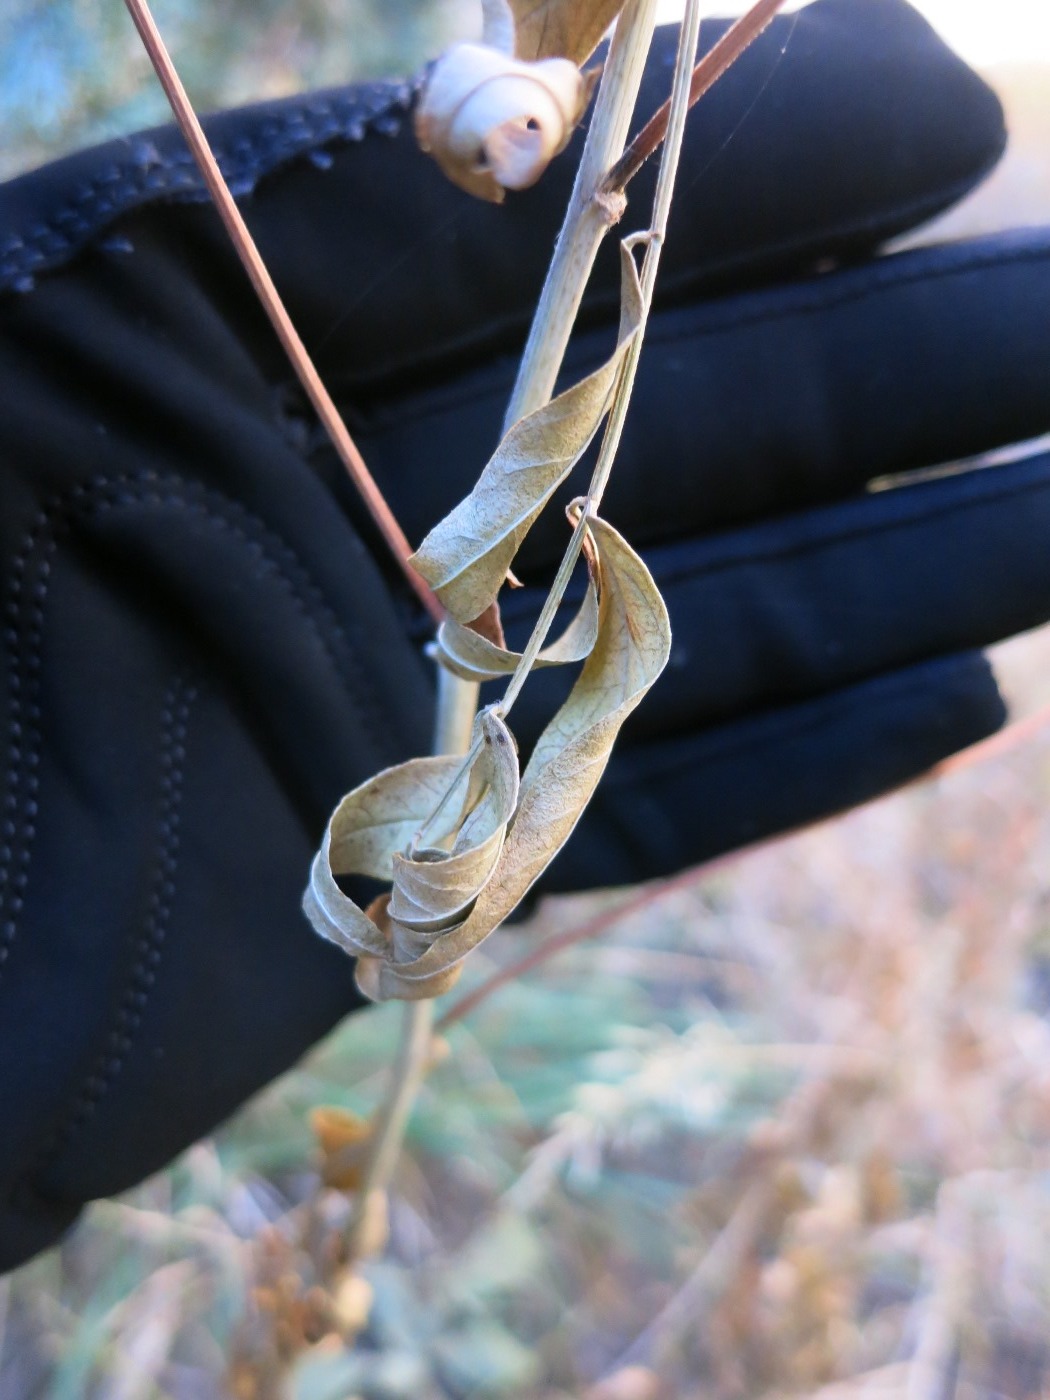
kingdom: Plantae
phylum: Tracheophyta
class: Magnoliopsida
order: Fabales
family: Fabaceae
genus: Glycyrrhiza
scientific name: Glycyrrhiza lepidota
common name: American liquorice
